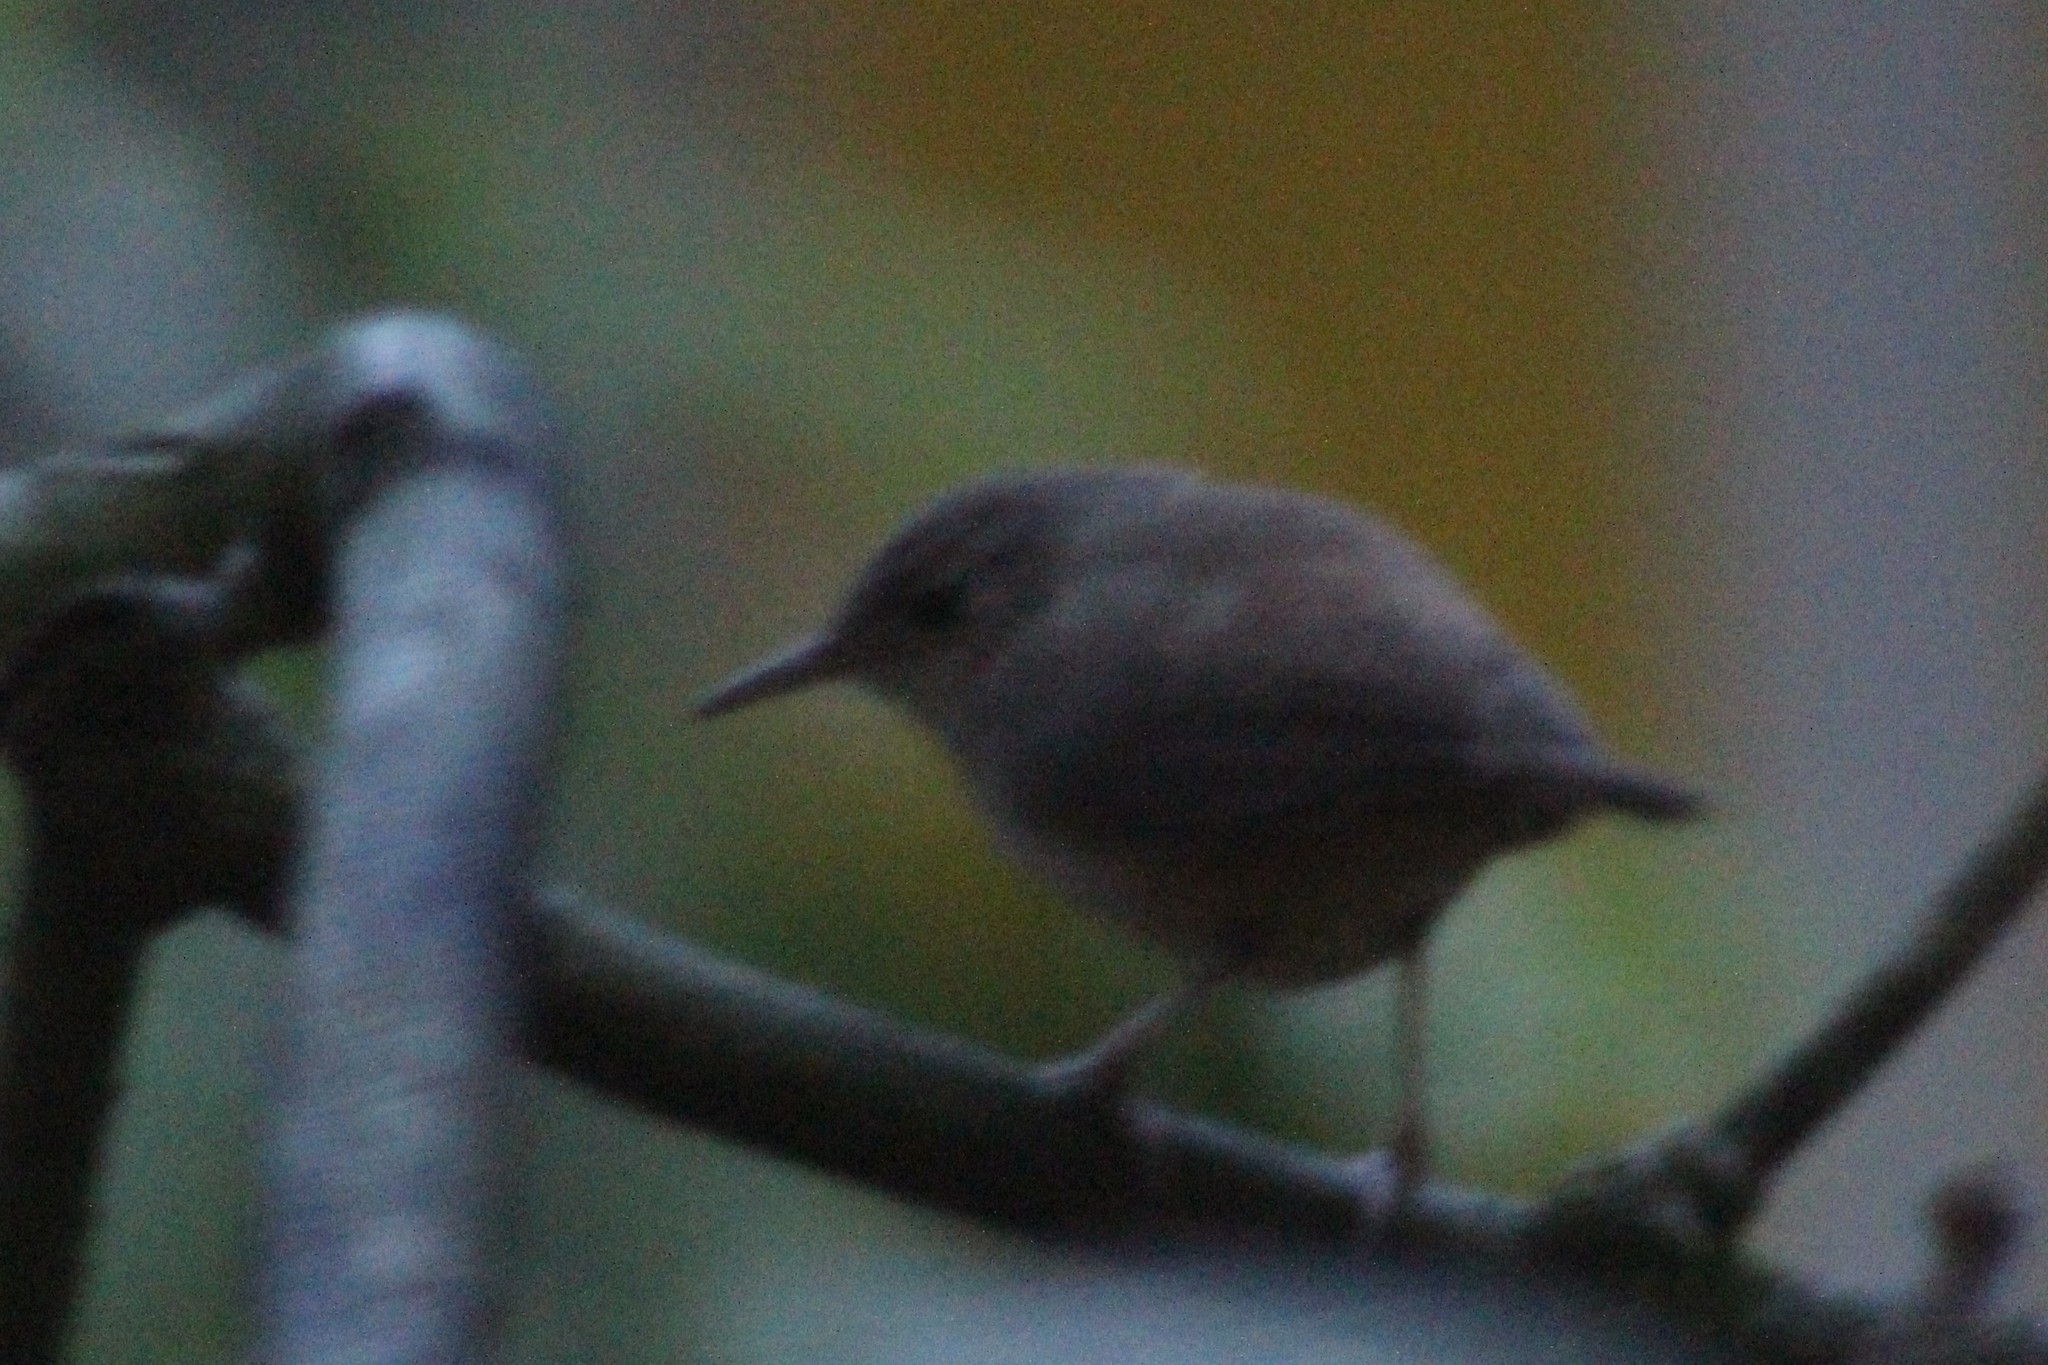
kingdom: Animalia
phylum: Chordata
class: Aves
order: Passeriformes
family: Troglodytidae
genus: Troglodytes
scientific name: Troglodytes aedon
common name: House wren
